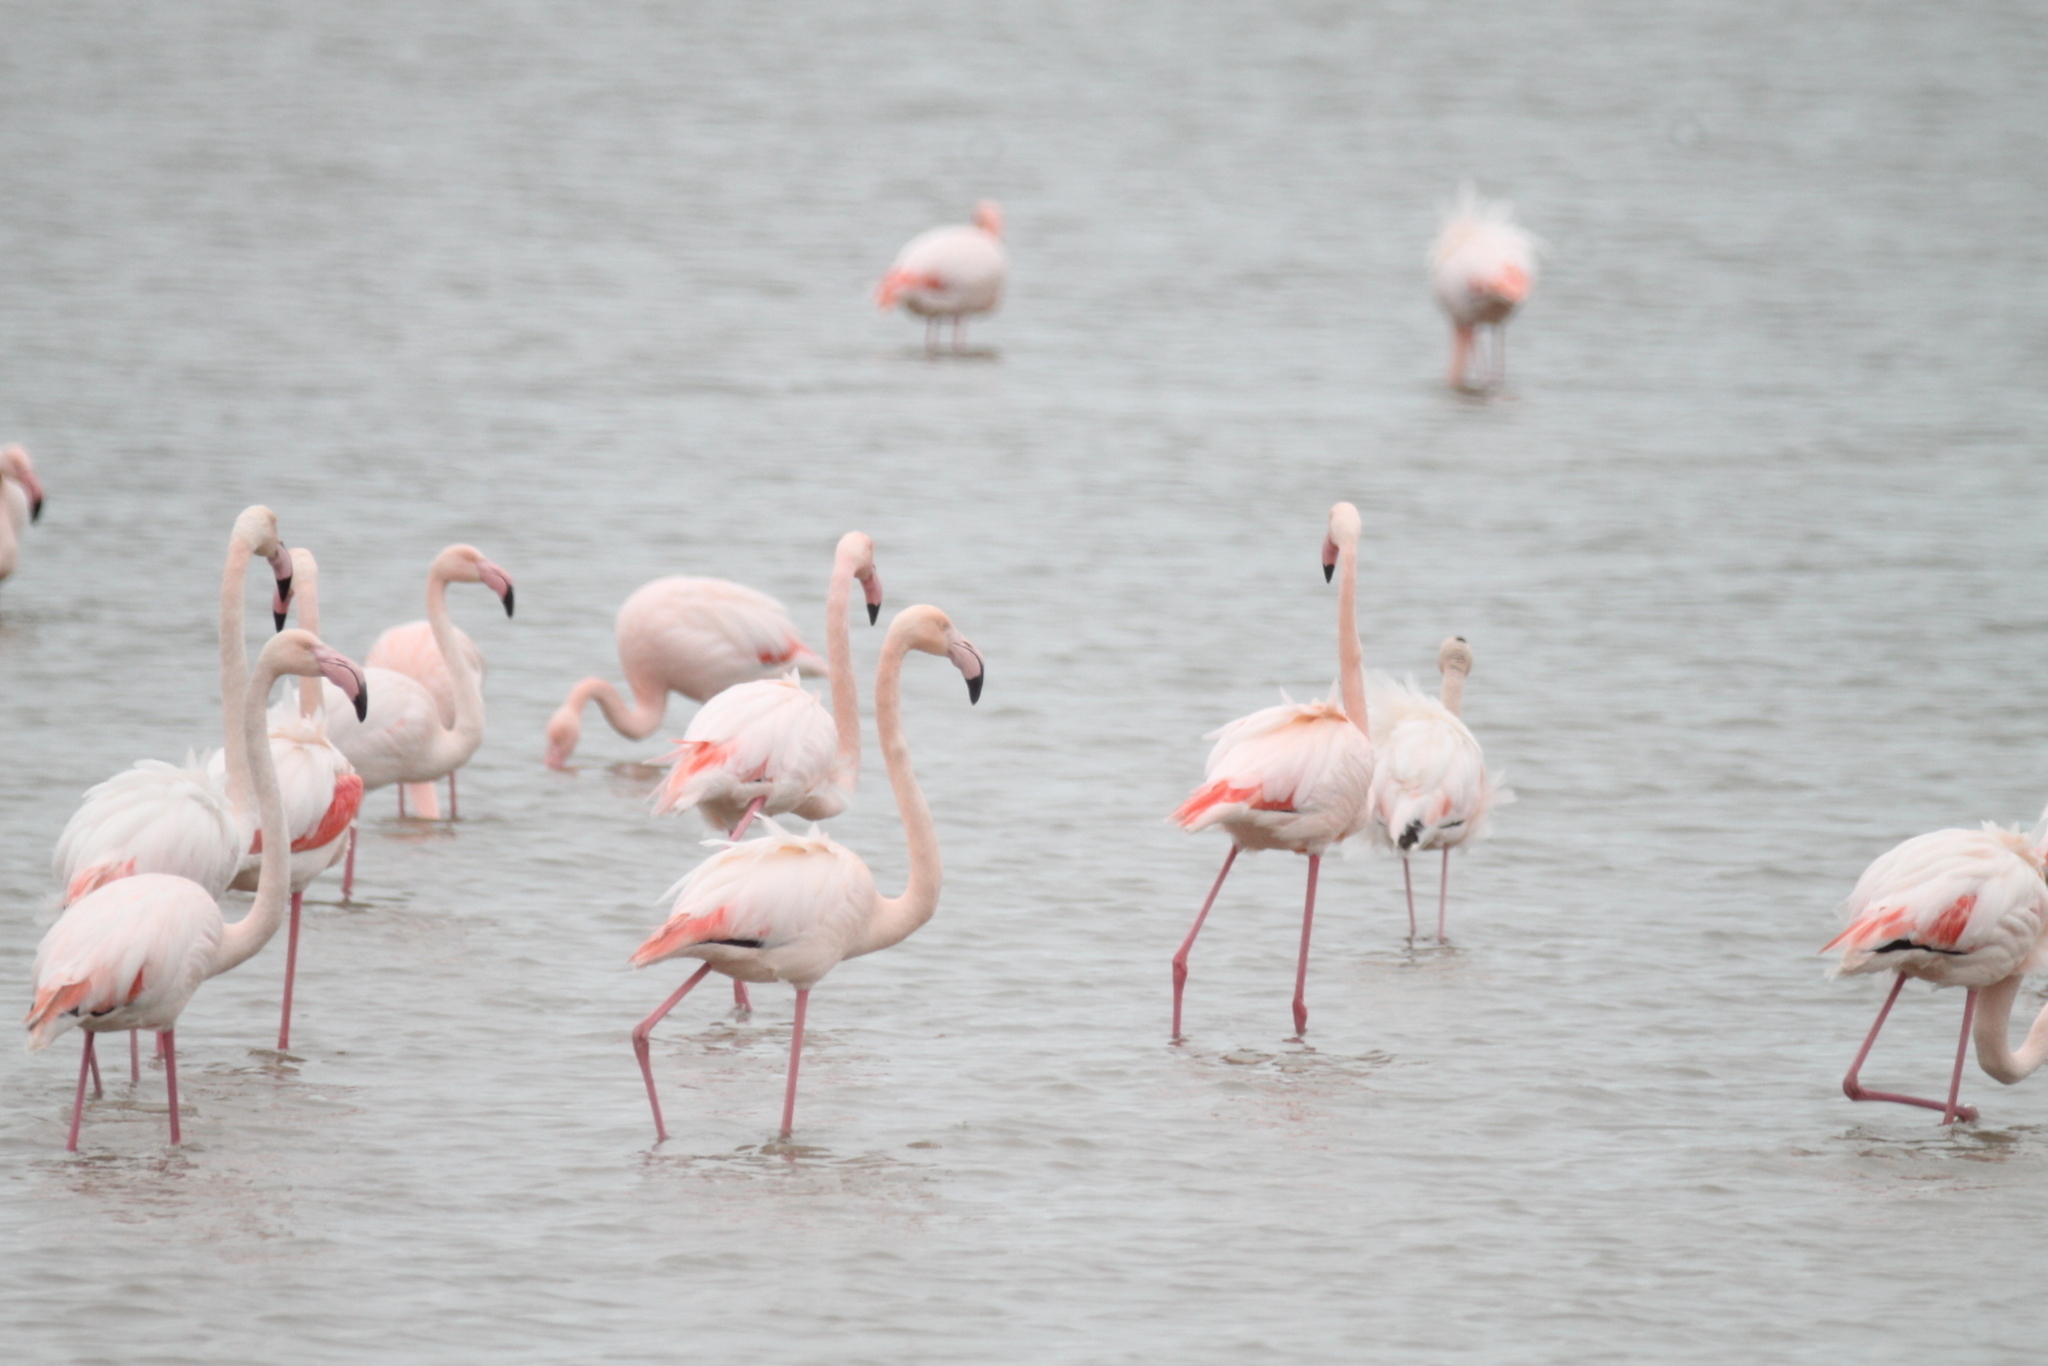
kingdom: Animalia
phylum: Chordata
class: Aves
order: Phoenicopteriformes
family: Phoenicopteridae
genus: Phoenicopterus
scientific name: Phoenicopterus roseus
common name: Greater flamingo
